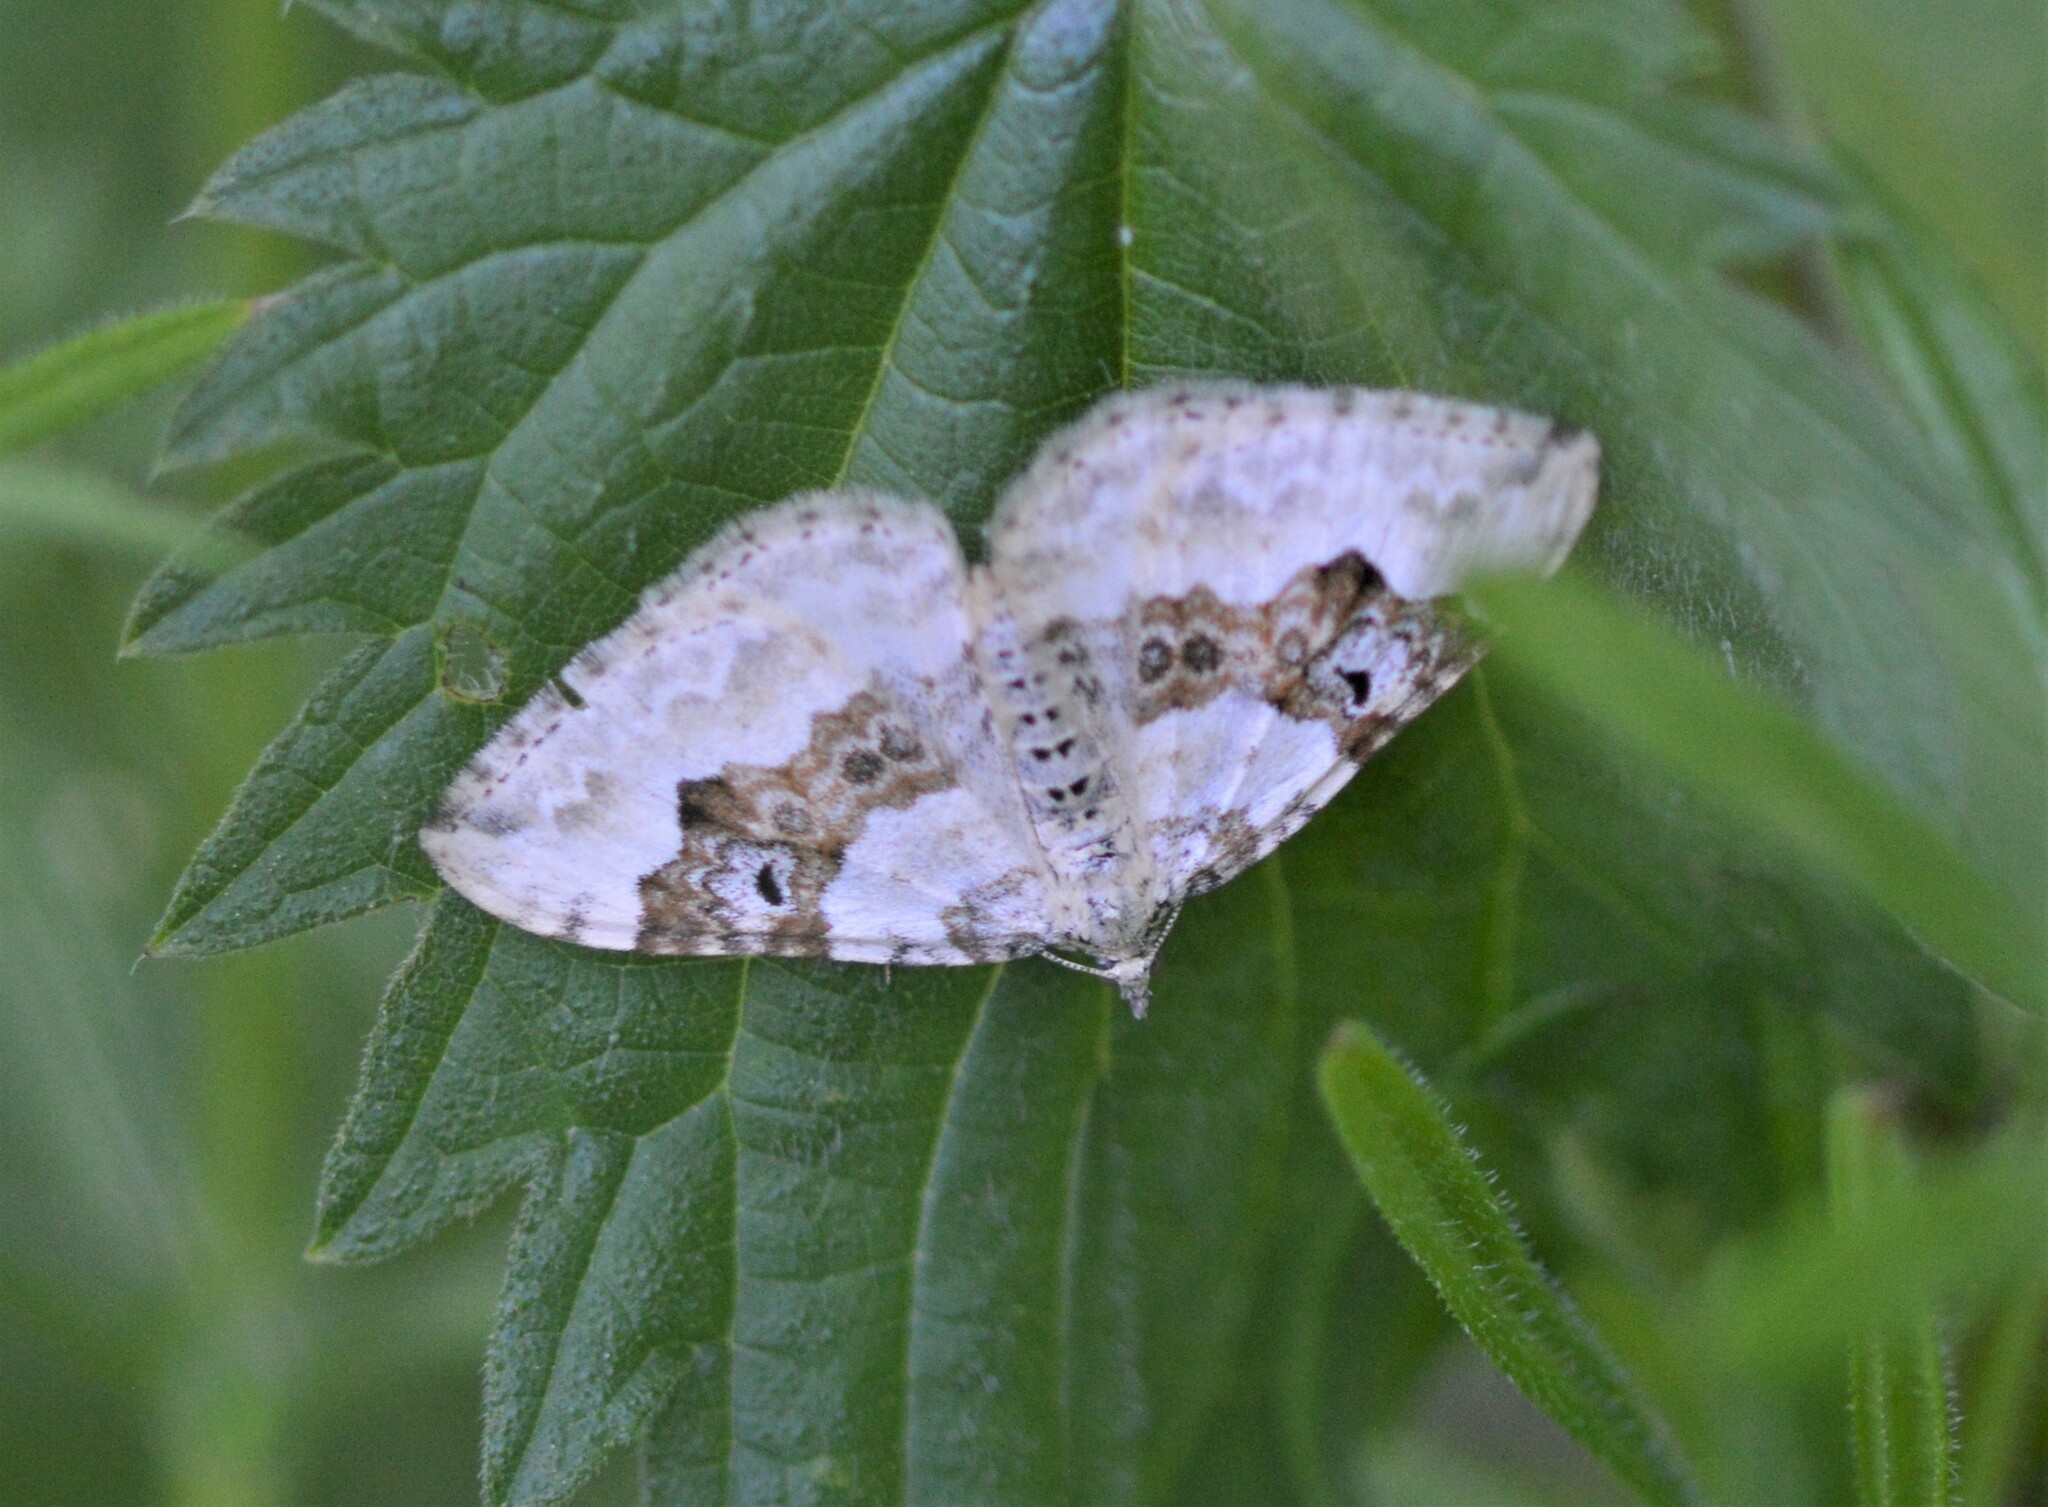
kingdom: Animalia
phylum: Arthropoda
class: Insecta
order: Lepidoptera
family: Geometridae
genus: Xanthorhoe
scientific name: Xanthorhoe montanata
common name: Silver-ground carpet
